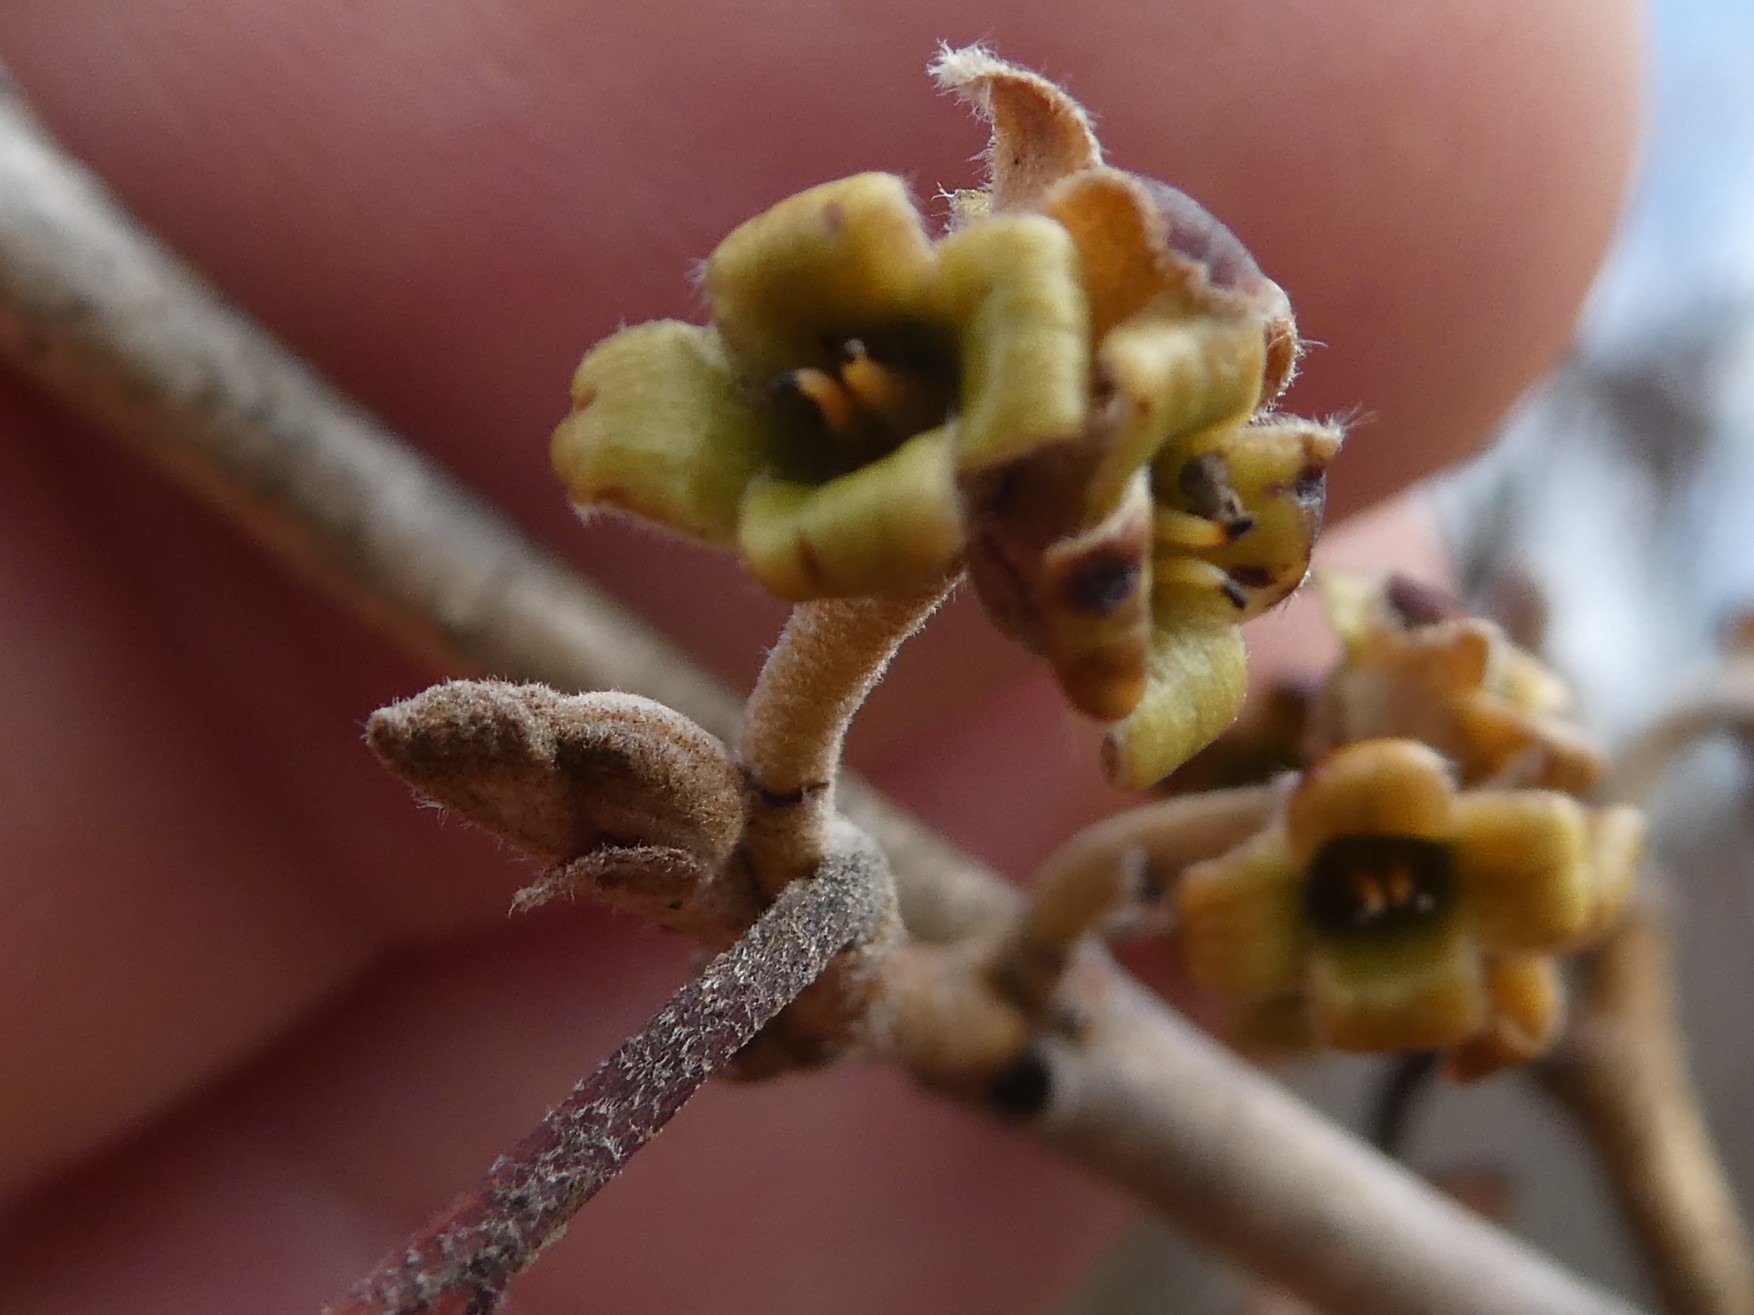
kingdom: Plantae
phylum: Tracheophyta
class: Magnoliopsida
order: Saxifragales
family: Hamamelidaceae
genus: Hamamelis
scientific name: Hamamelis virginiana
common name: Witch-hazel
